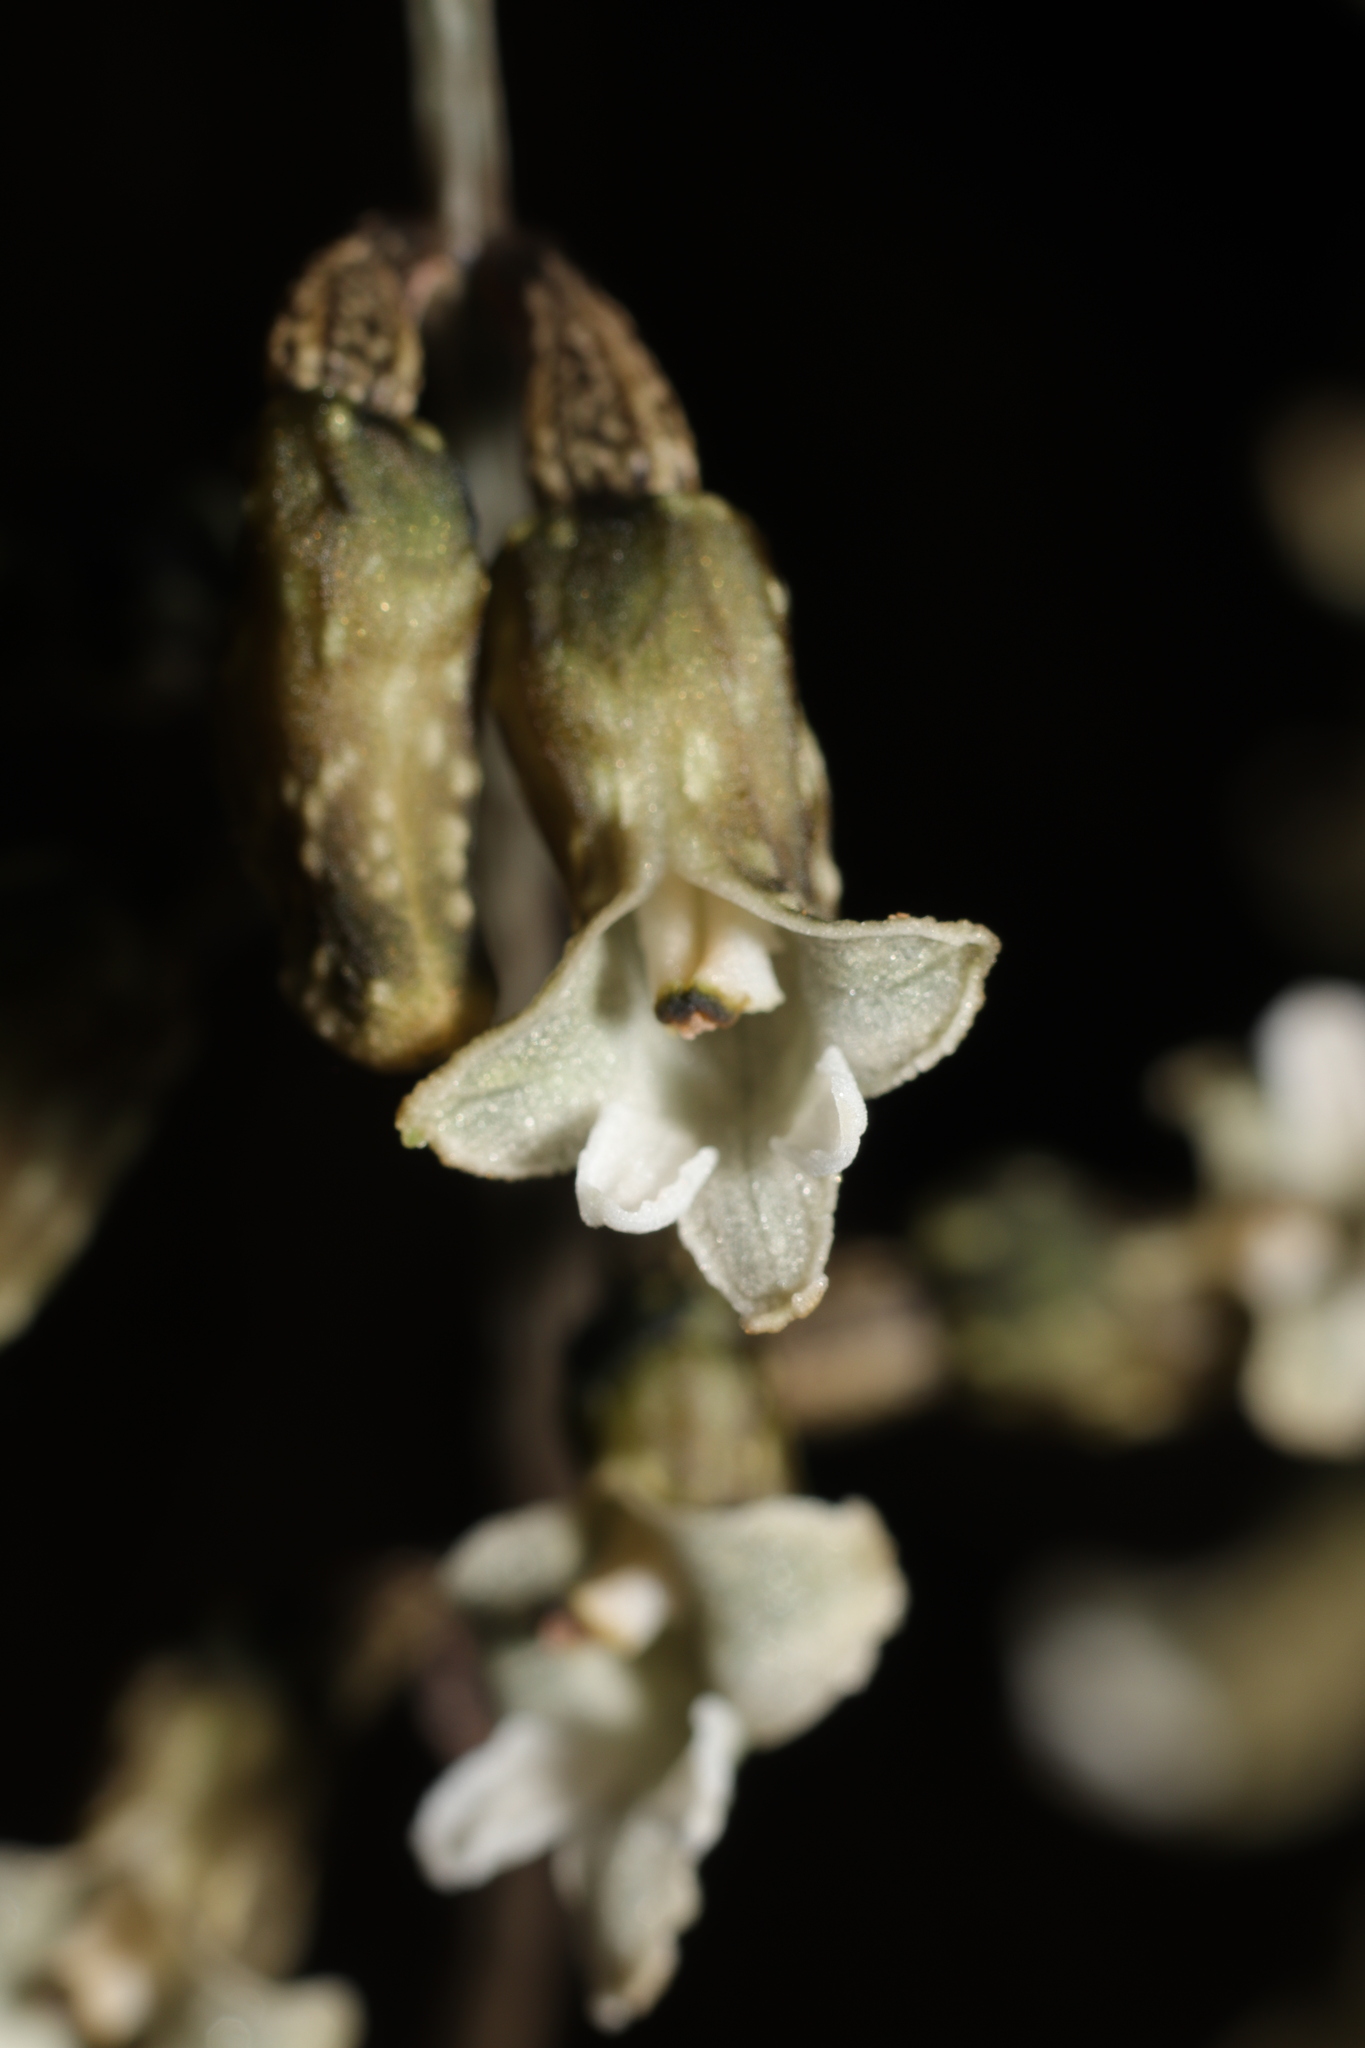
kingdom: Plantae
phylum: Tracheophyta
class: Liliopsida
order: Asparagales
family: Orchidaceae
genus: Gastrodia
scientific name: Gastrodia cunninghamii
